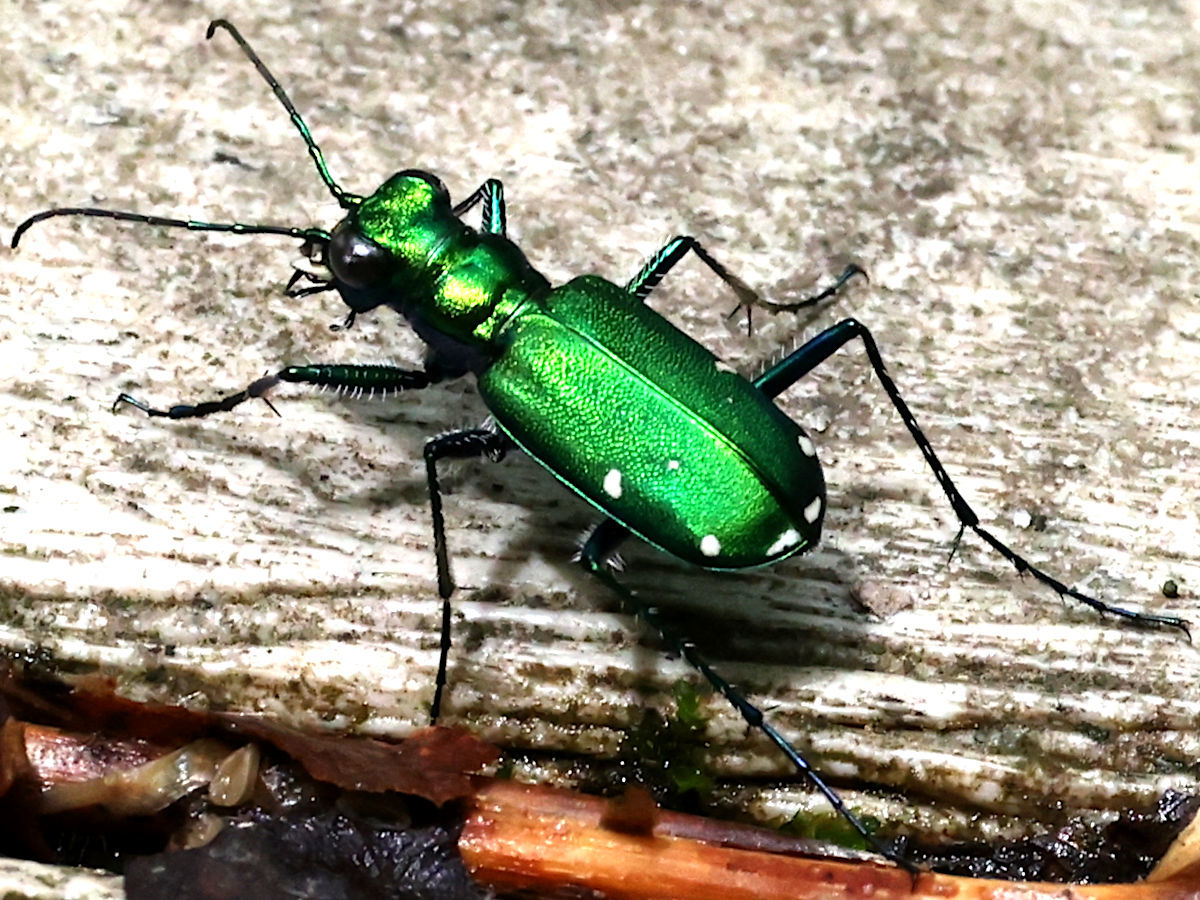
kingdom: Animalia
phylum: Arthropoda
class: Insecta
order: Coleoptera
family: Carabidae
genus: Cicindela
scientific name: Cicindela sexguttata
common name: Six-spotted tiger beetle
